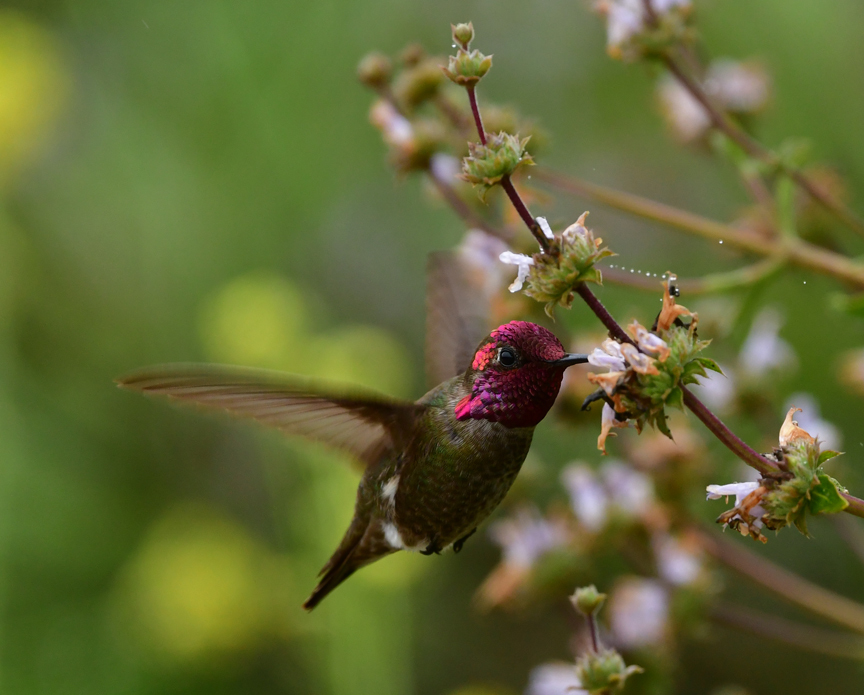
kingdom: Animalia
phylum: Chordata
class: Aves
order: Apodiformes
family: Trochilidae
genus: Calypte
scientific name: Calypte anna
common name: Anna's hummingbird
